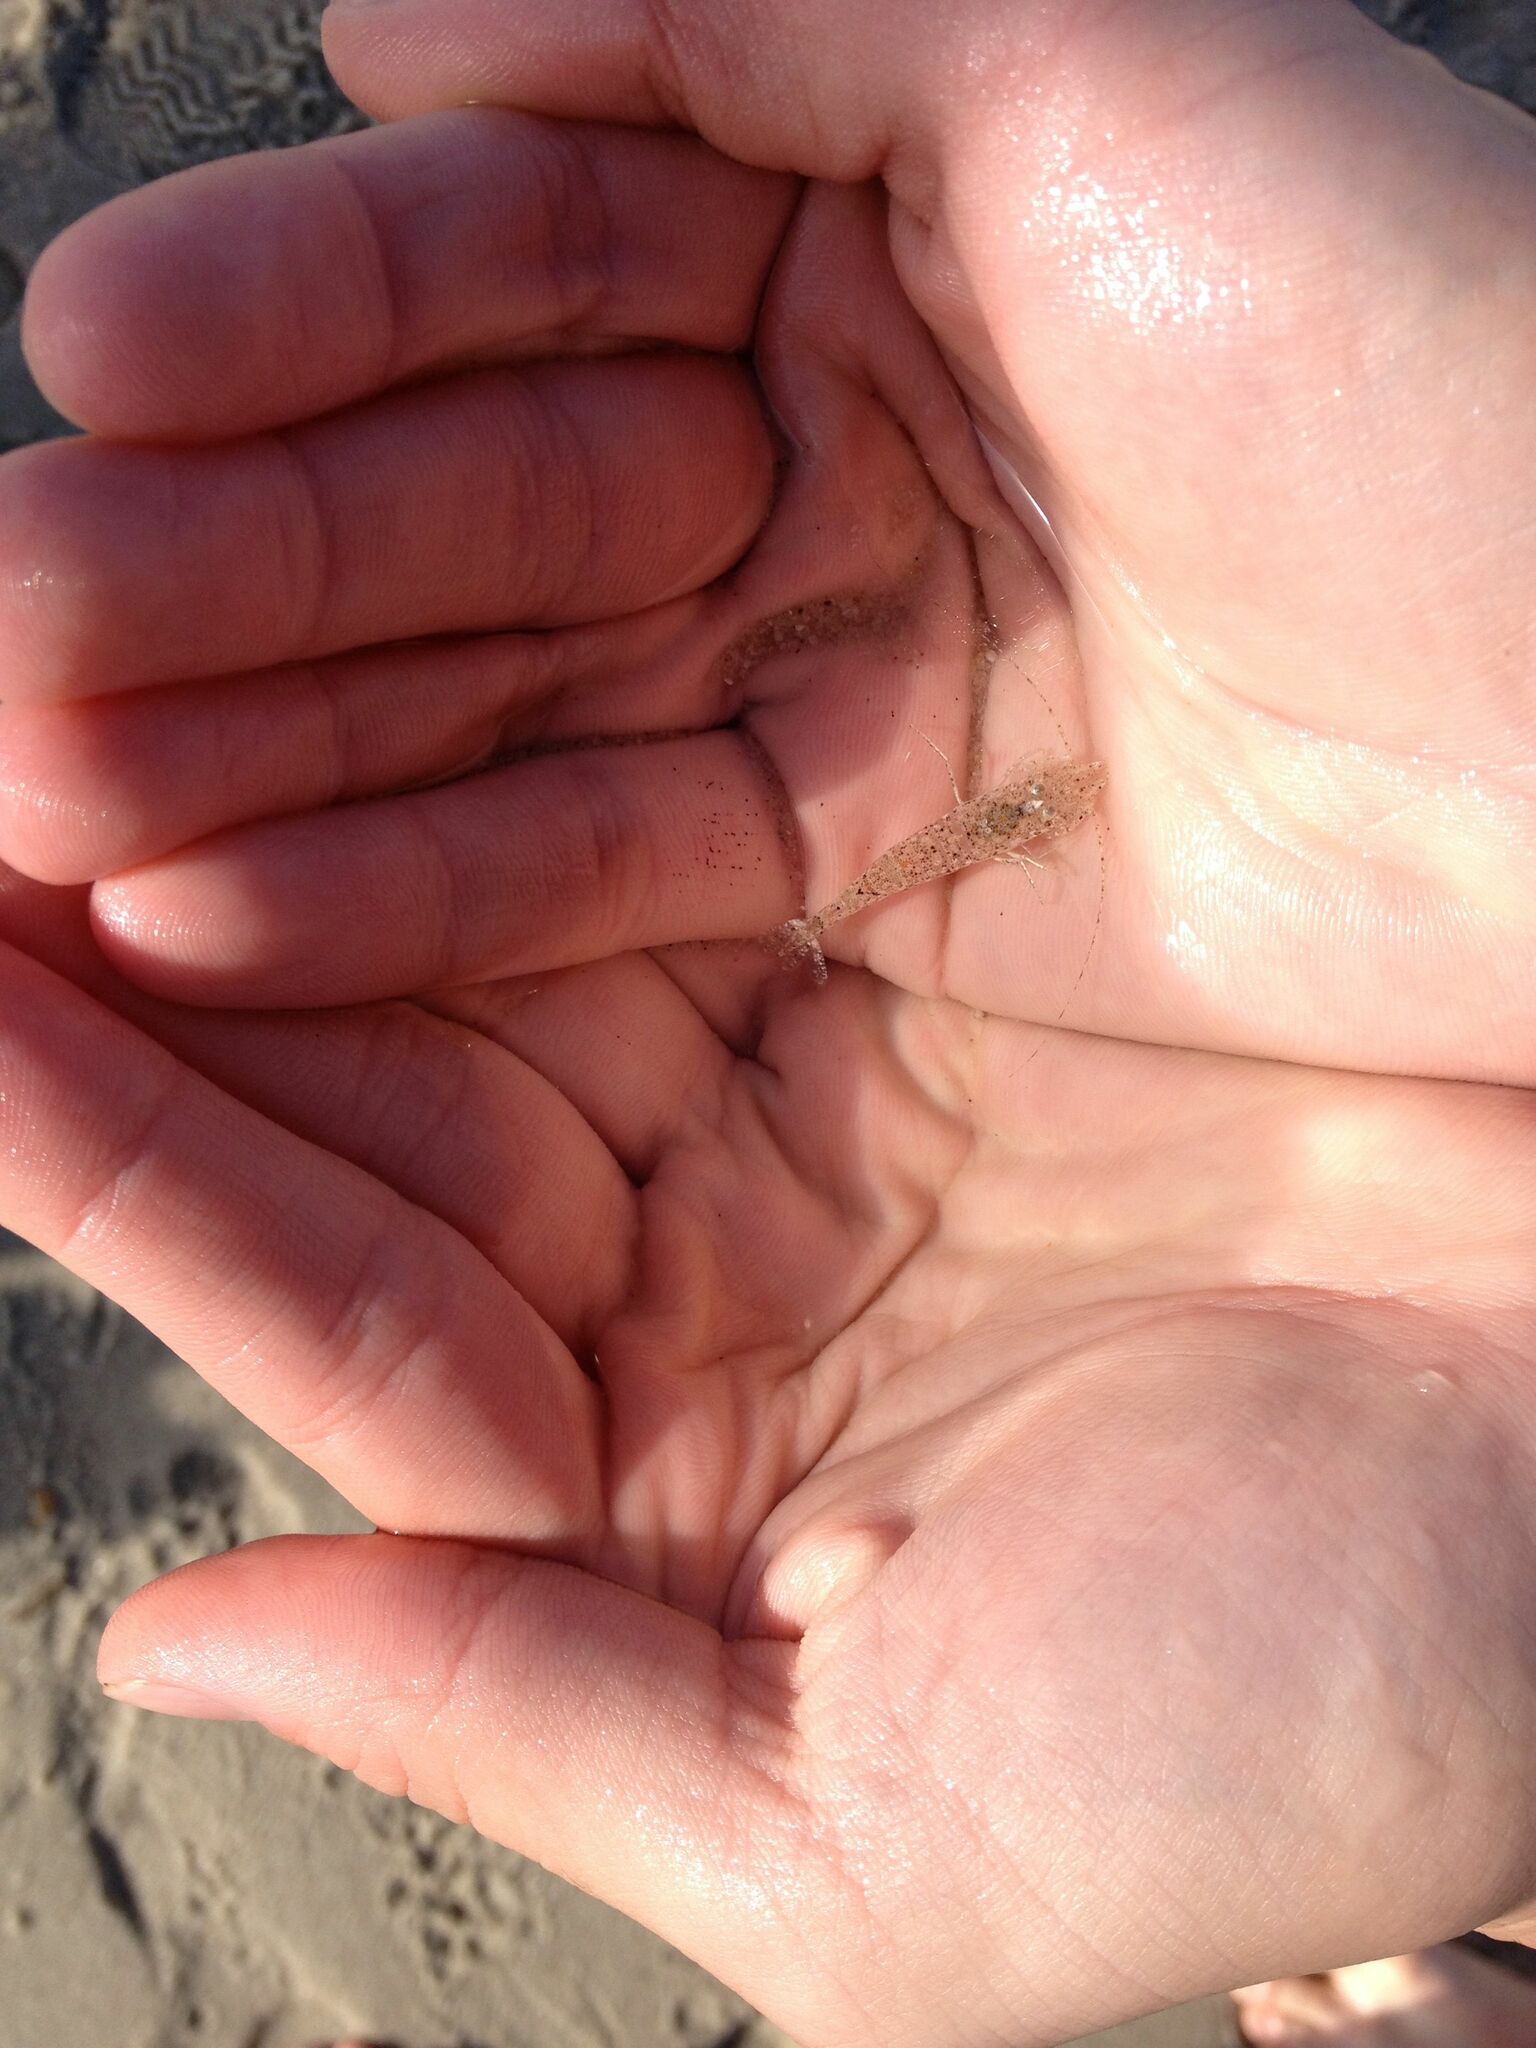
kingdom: Animalia
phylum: Arthropoda
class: Malacostraca
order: Decapoda
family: Crangonidae
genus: Crangon
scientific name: Crangon crangon
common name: Brown shrimp
